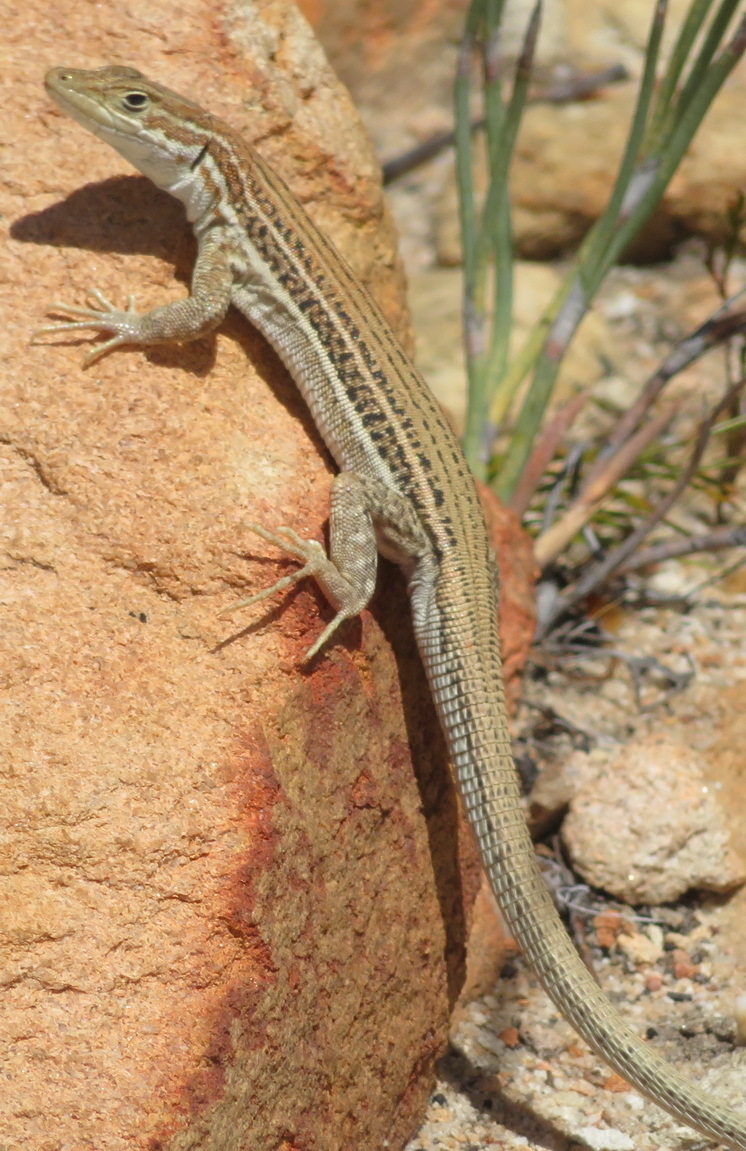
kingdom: Animalia
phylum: Chordata
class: Squamata
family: Lacertidae
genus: Pedioplanis
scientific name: Pedioplanis burchelli
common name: Burchell's sand lizard
